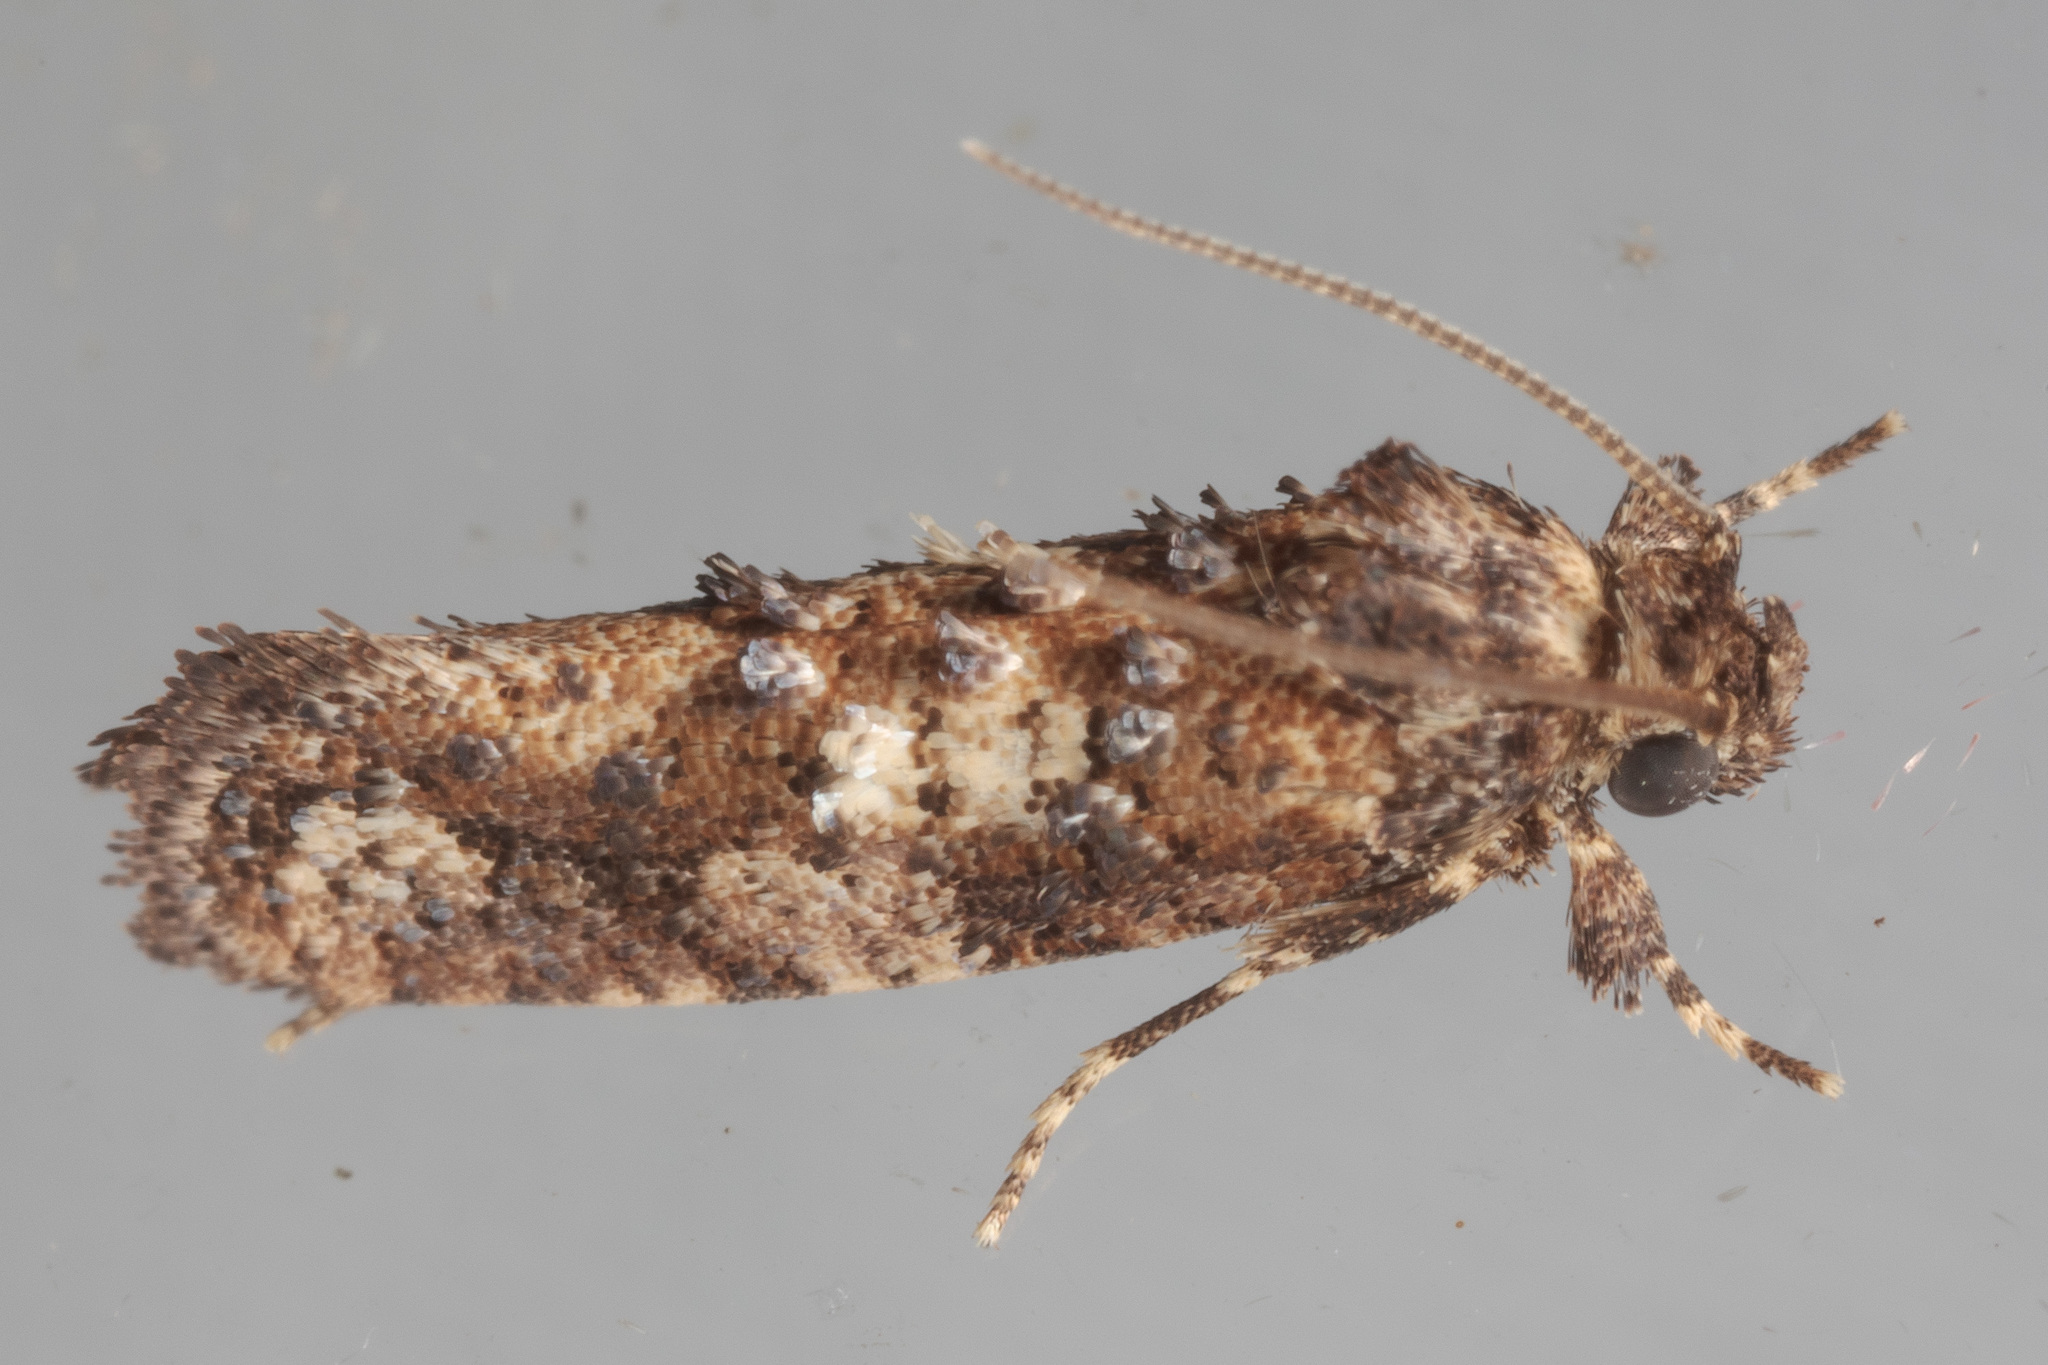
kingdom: Animalia
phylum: Arthropoda
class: Insecta
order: Lepidoptera
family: Tineidae
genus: Acrolophus
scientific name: Acrolophus cressoni
